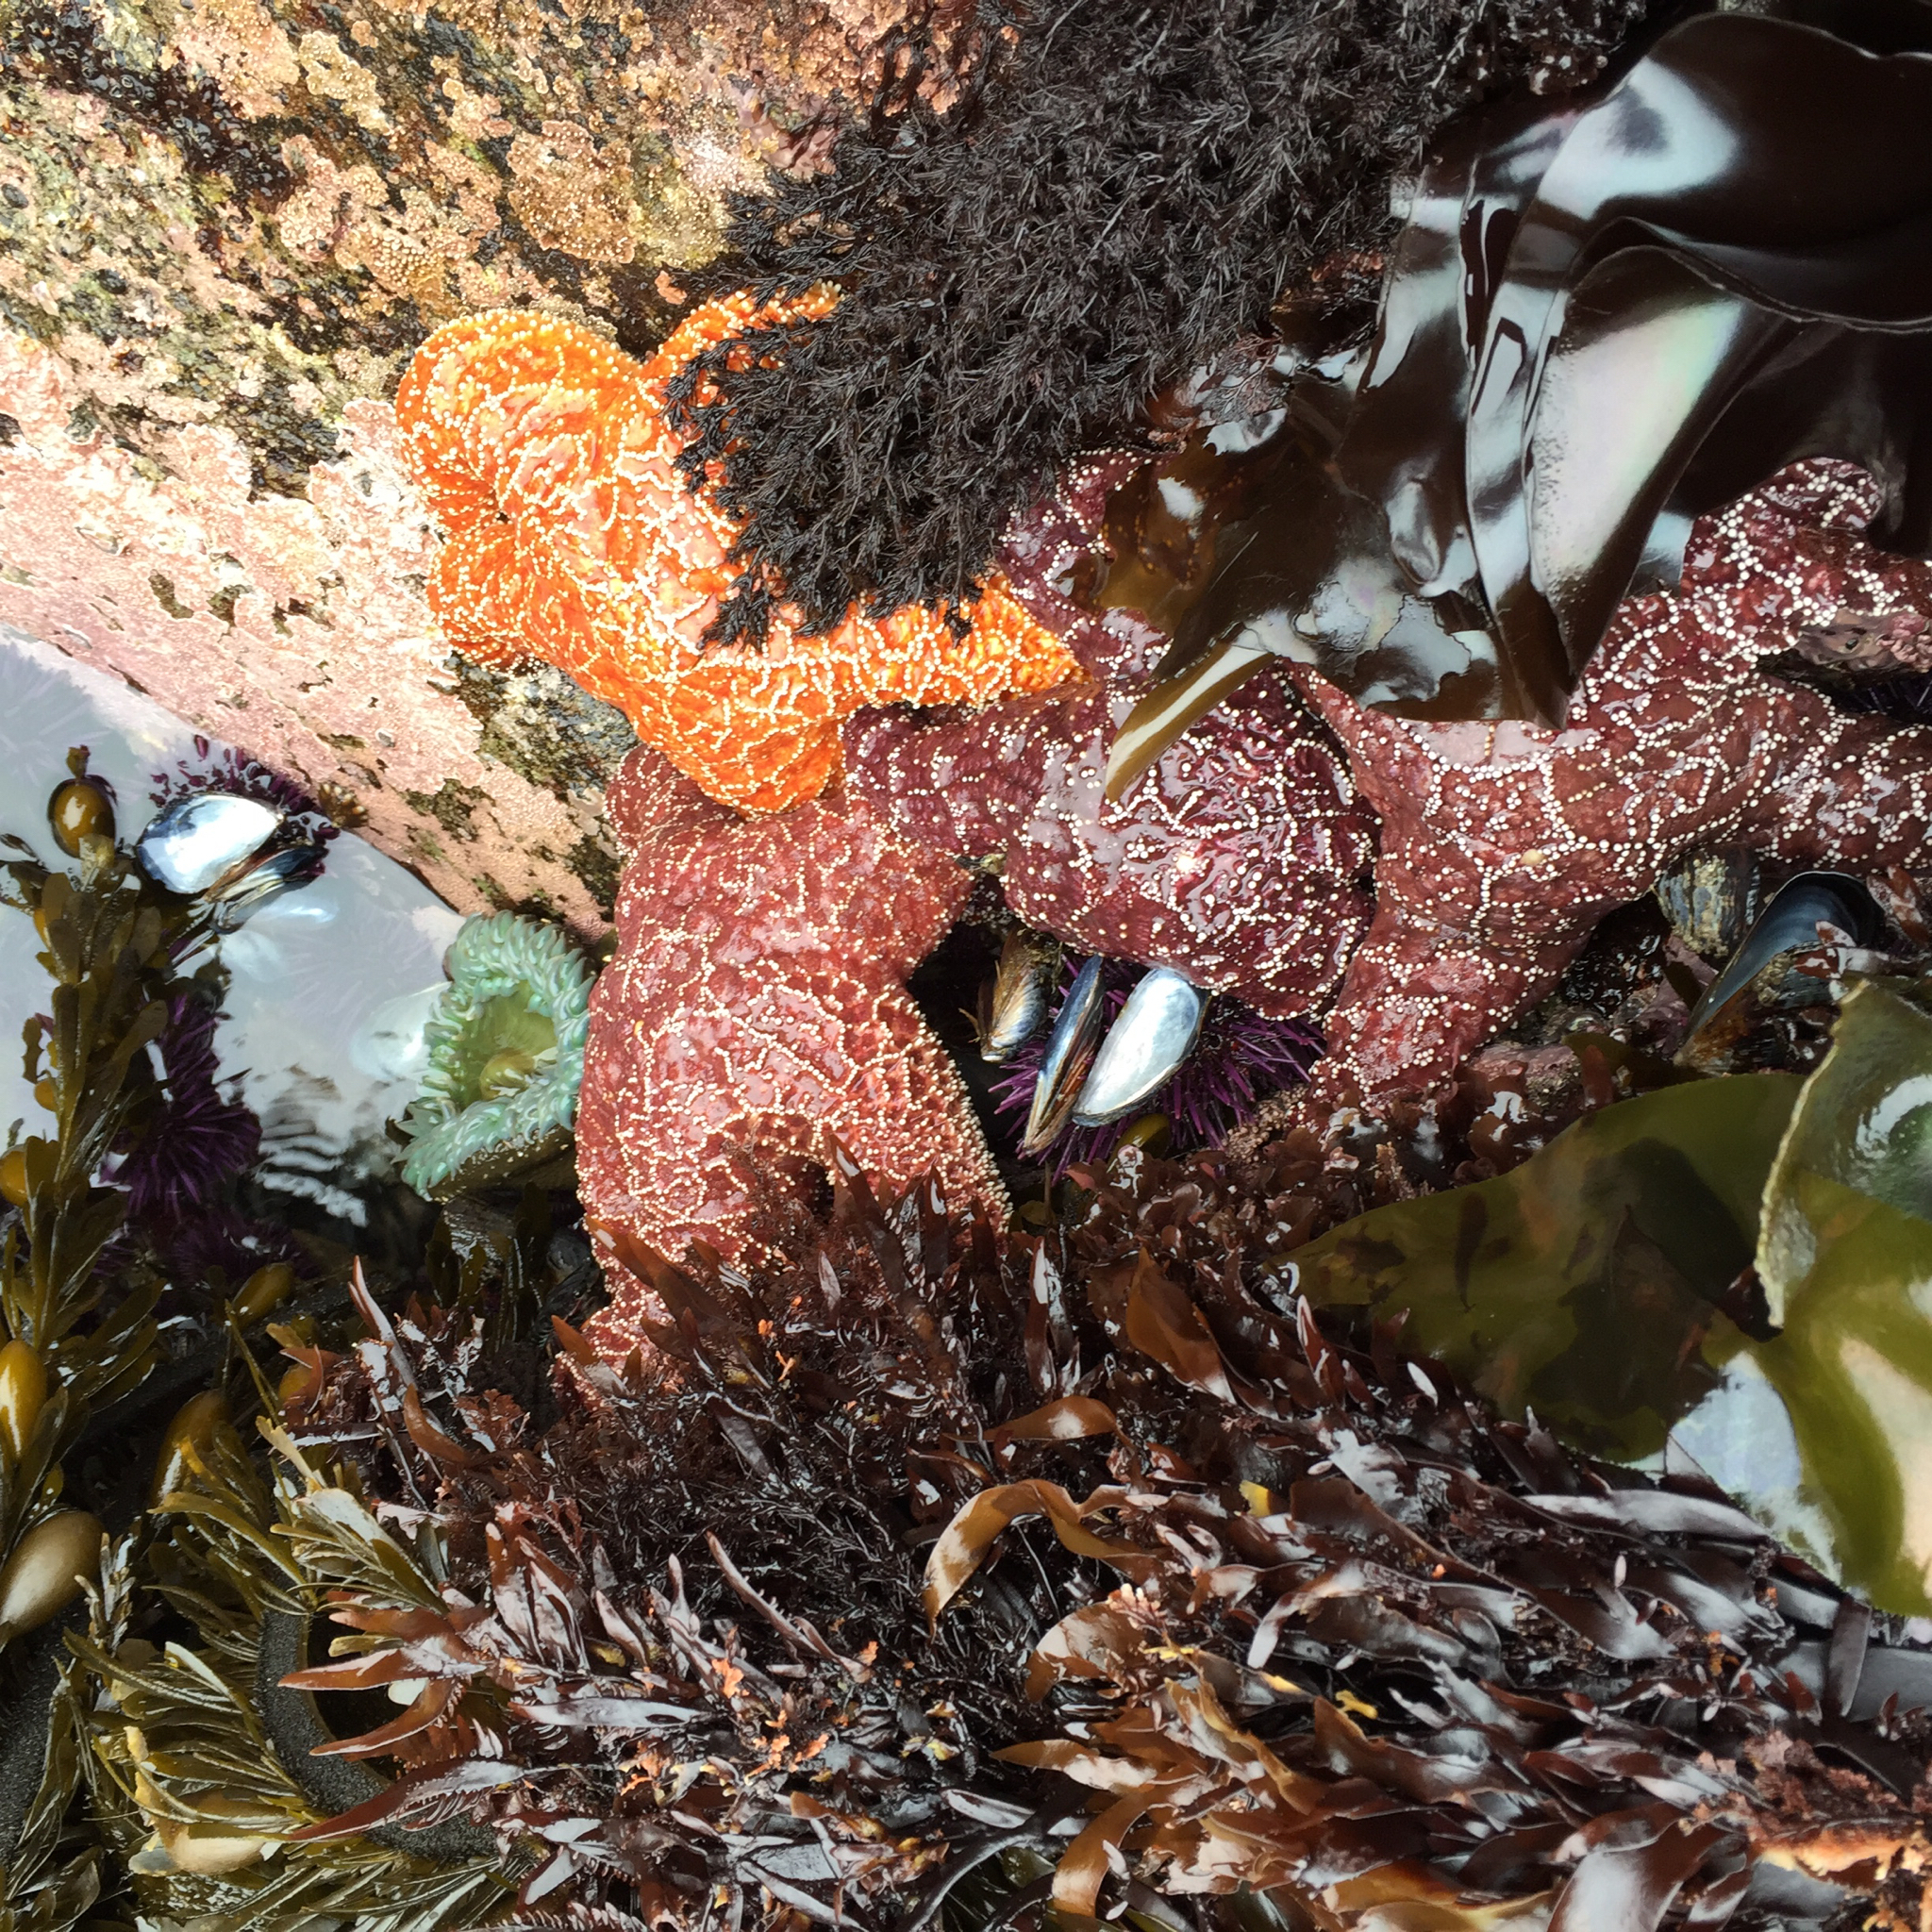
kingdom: Animalia
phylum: Echinodermata
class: Asteroidea
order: Forcipulatida
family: Asteriidae
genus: Pisaster
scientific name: Pisaster ochraceus
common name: Ochre stars
